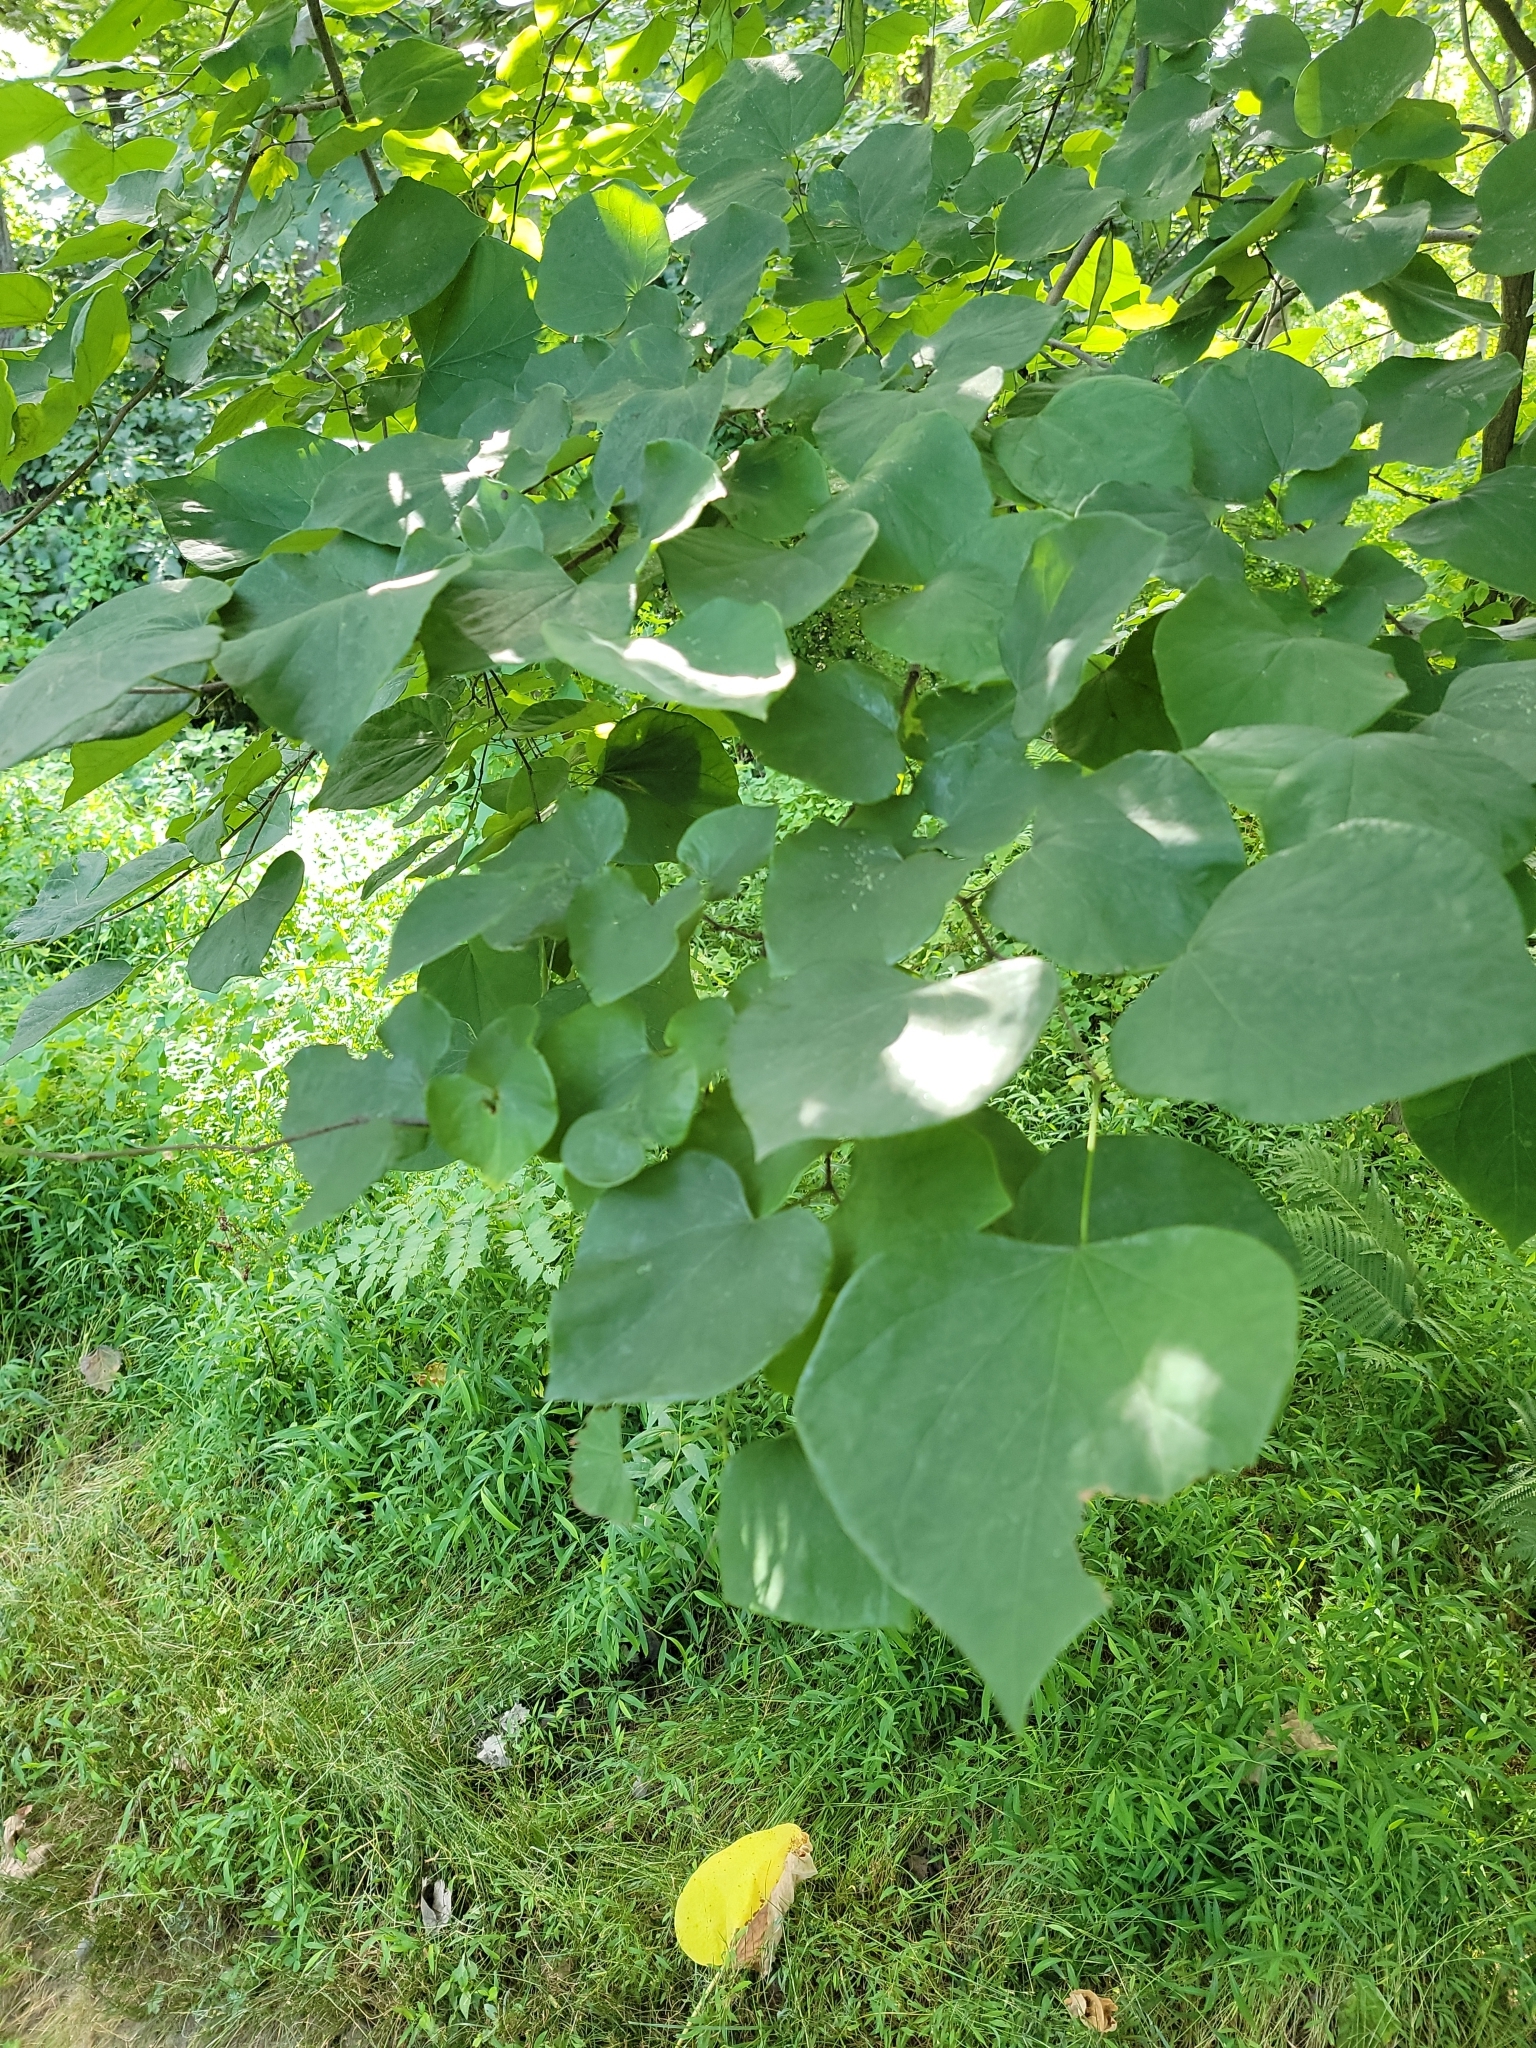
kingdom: Plantae
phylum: Tracheophyta
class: Magnoliopsida
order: Fabales
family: Fabaceae
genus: Cercis
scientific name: Cercis canadensis
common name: Eastern redbud
